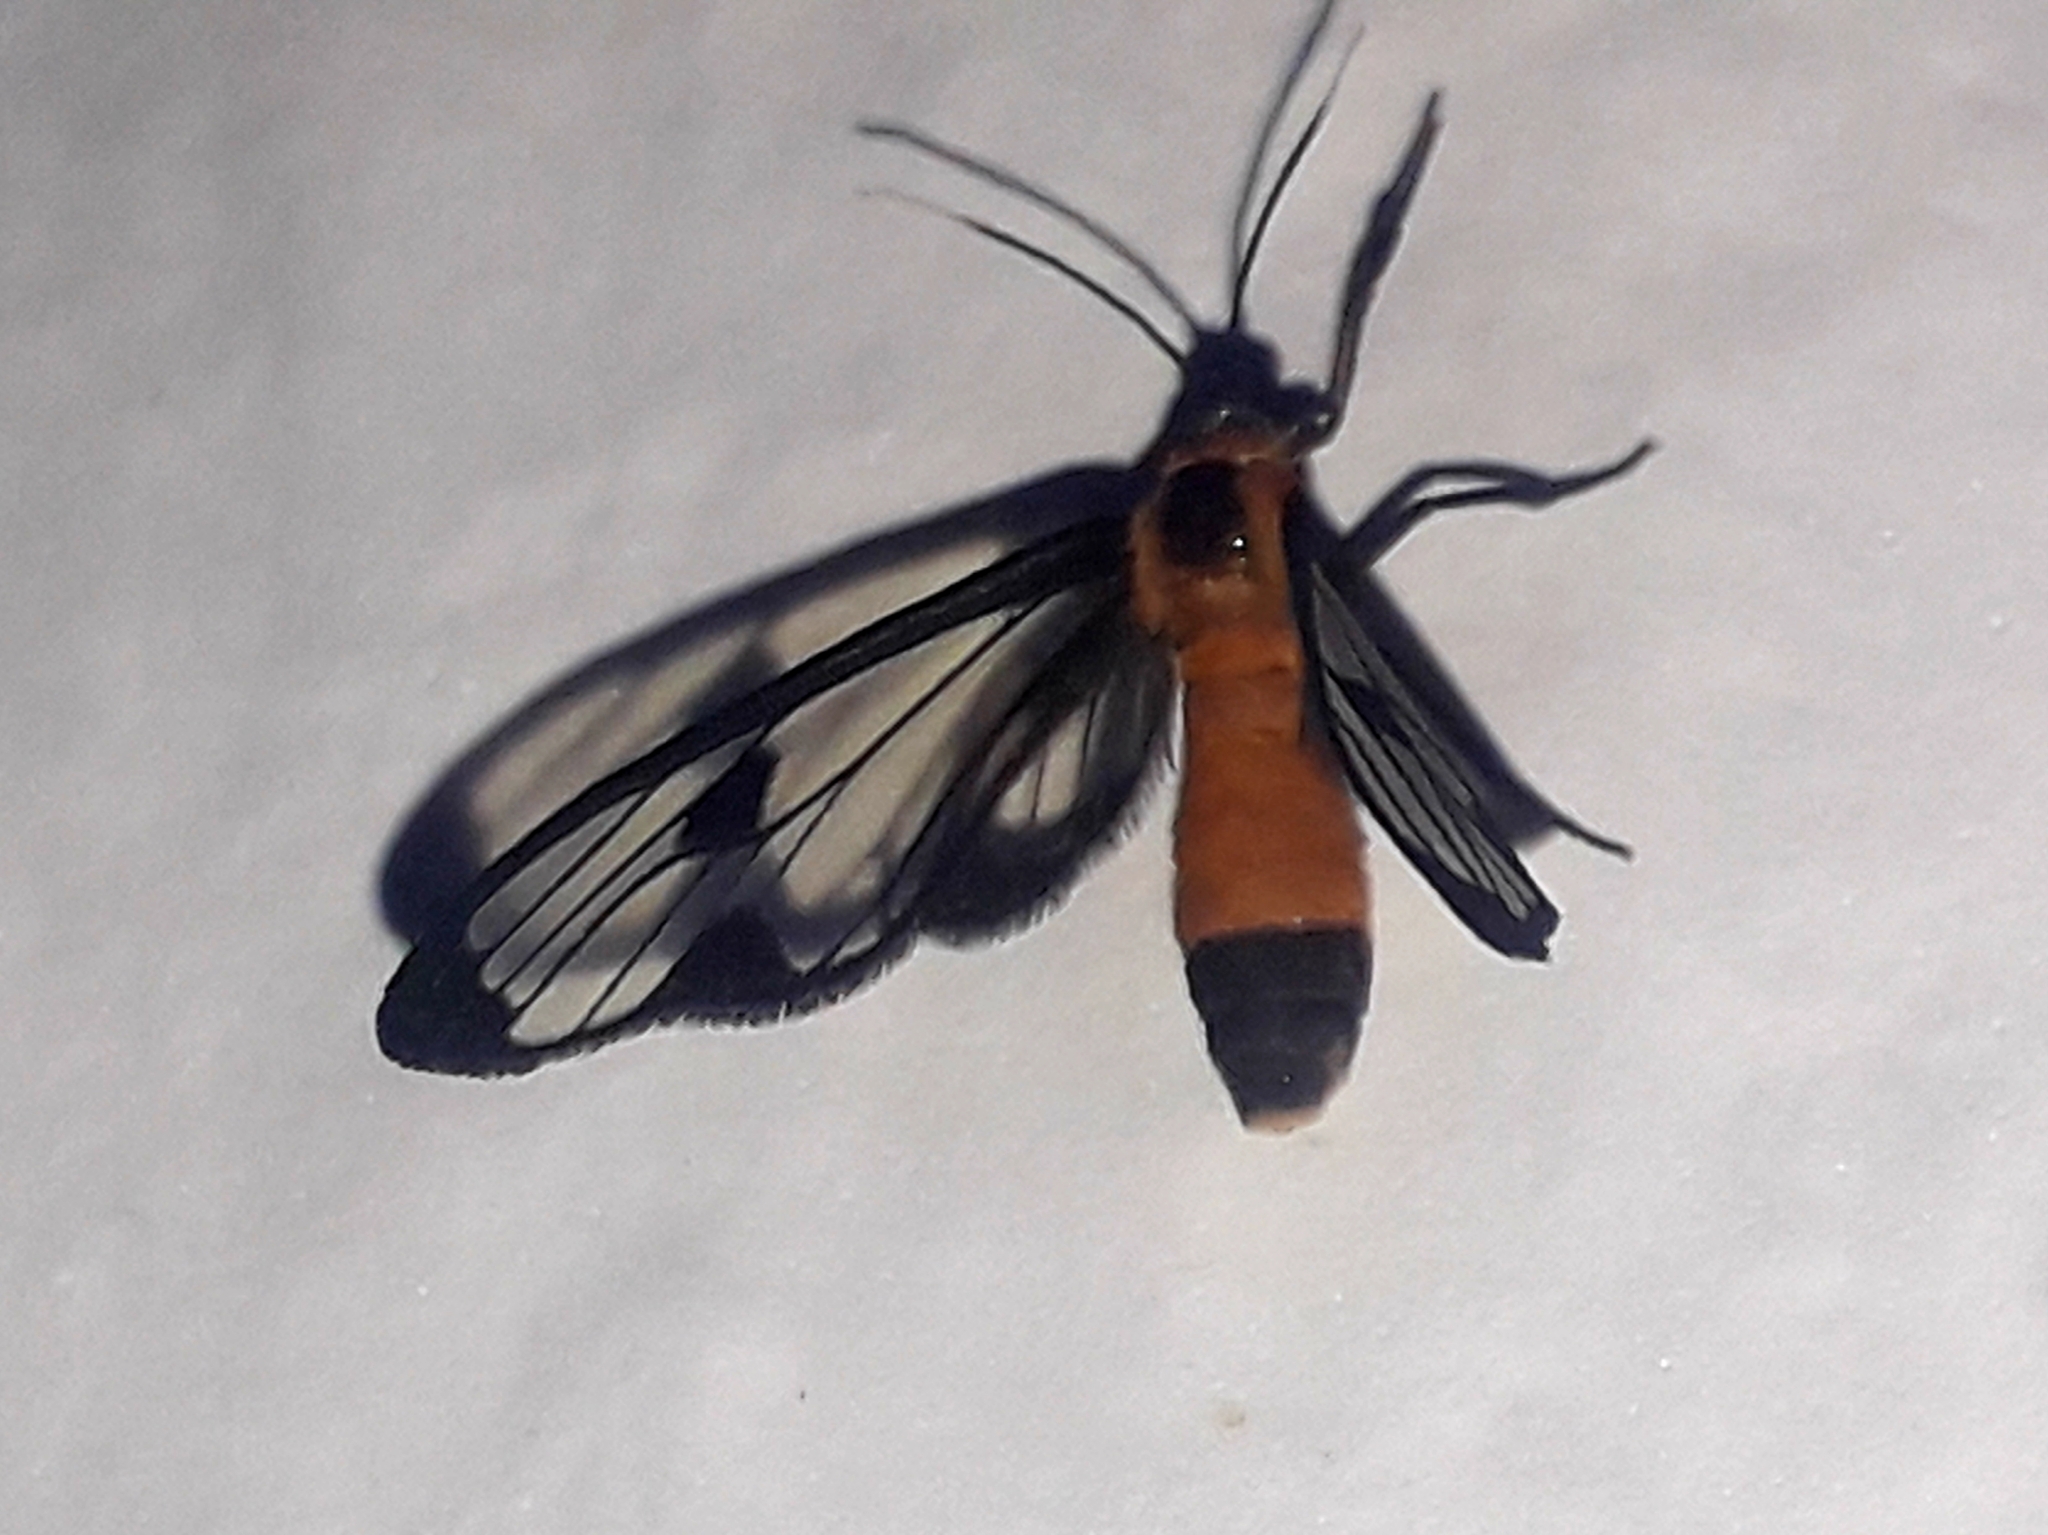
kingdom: Animalia
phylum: Arthropoda
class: Insecta
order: Lepidoptera
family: Erebidae
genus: Myopsyche
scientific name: Myopsyche meyi
